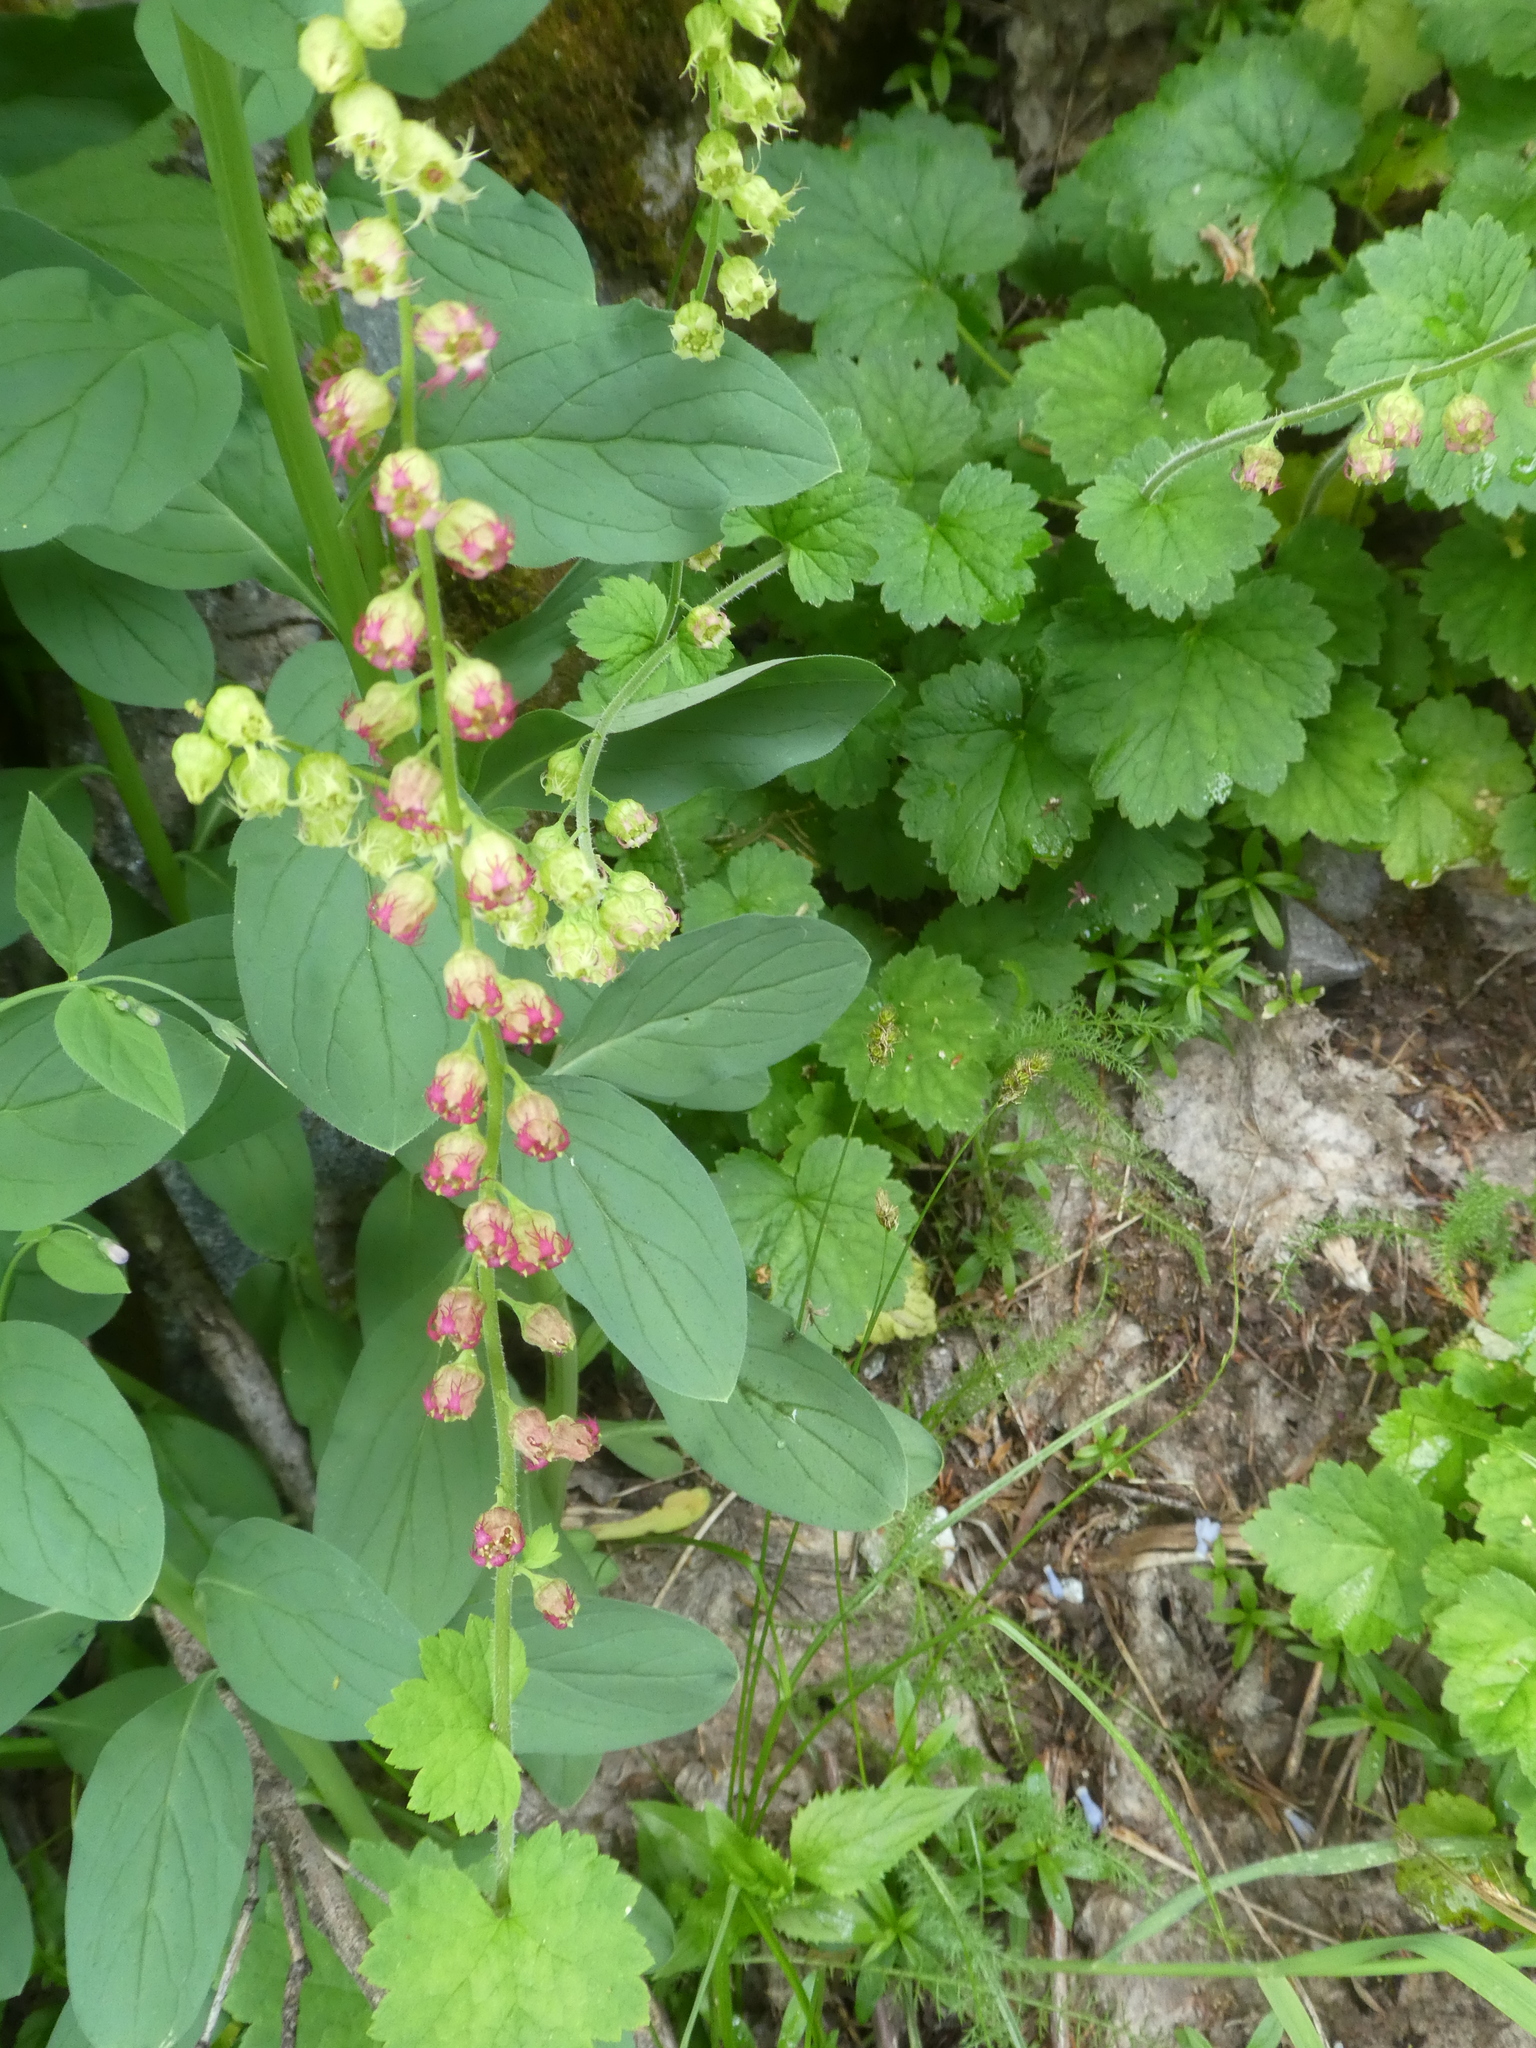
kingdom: Plantae
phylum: Tracheophyta
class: Magnoliopsida
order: Saxifragales
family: Saxifragaceae
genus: Tellima
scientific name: Tellima grandiflora
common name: Fringecups
